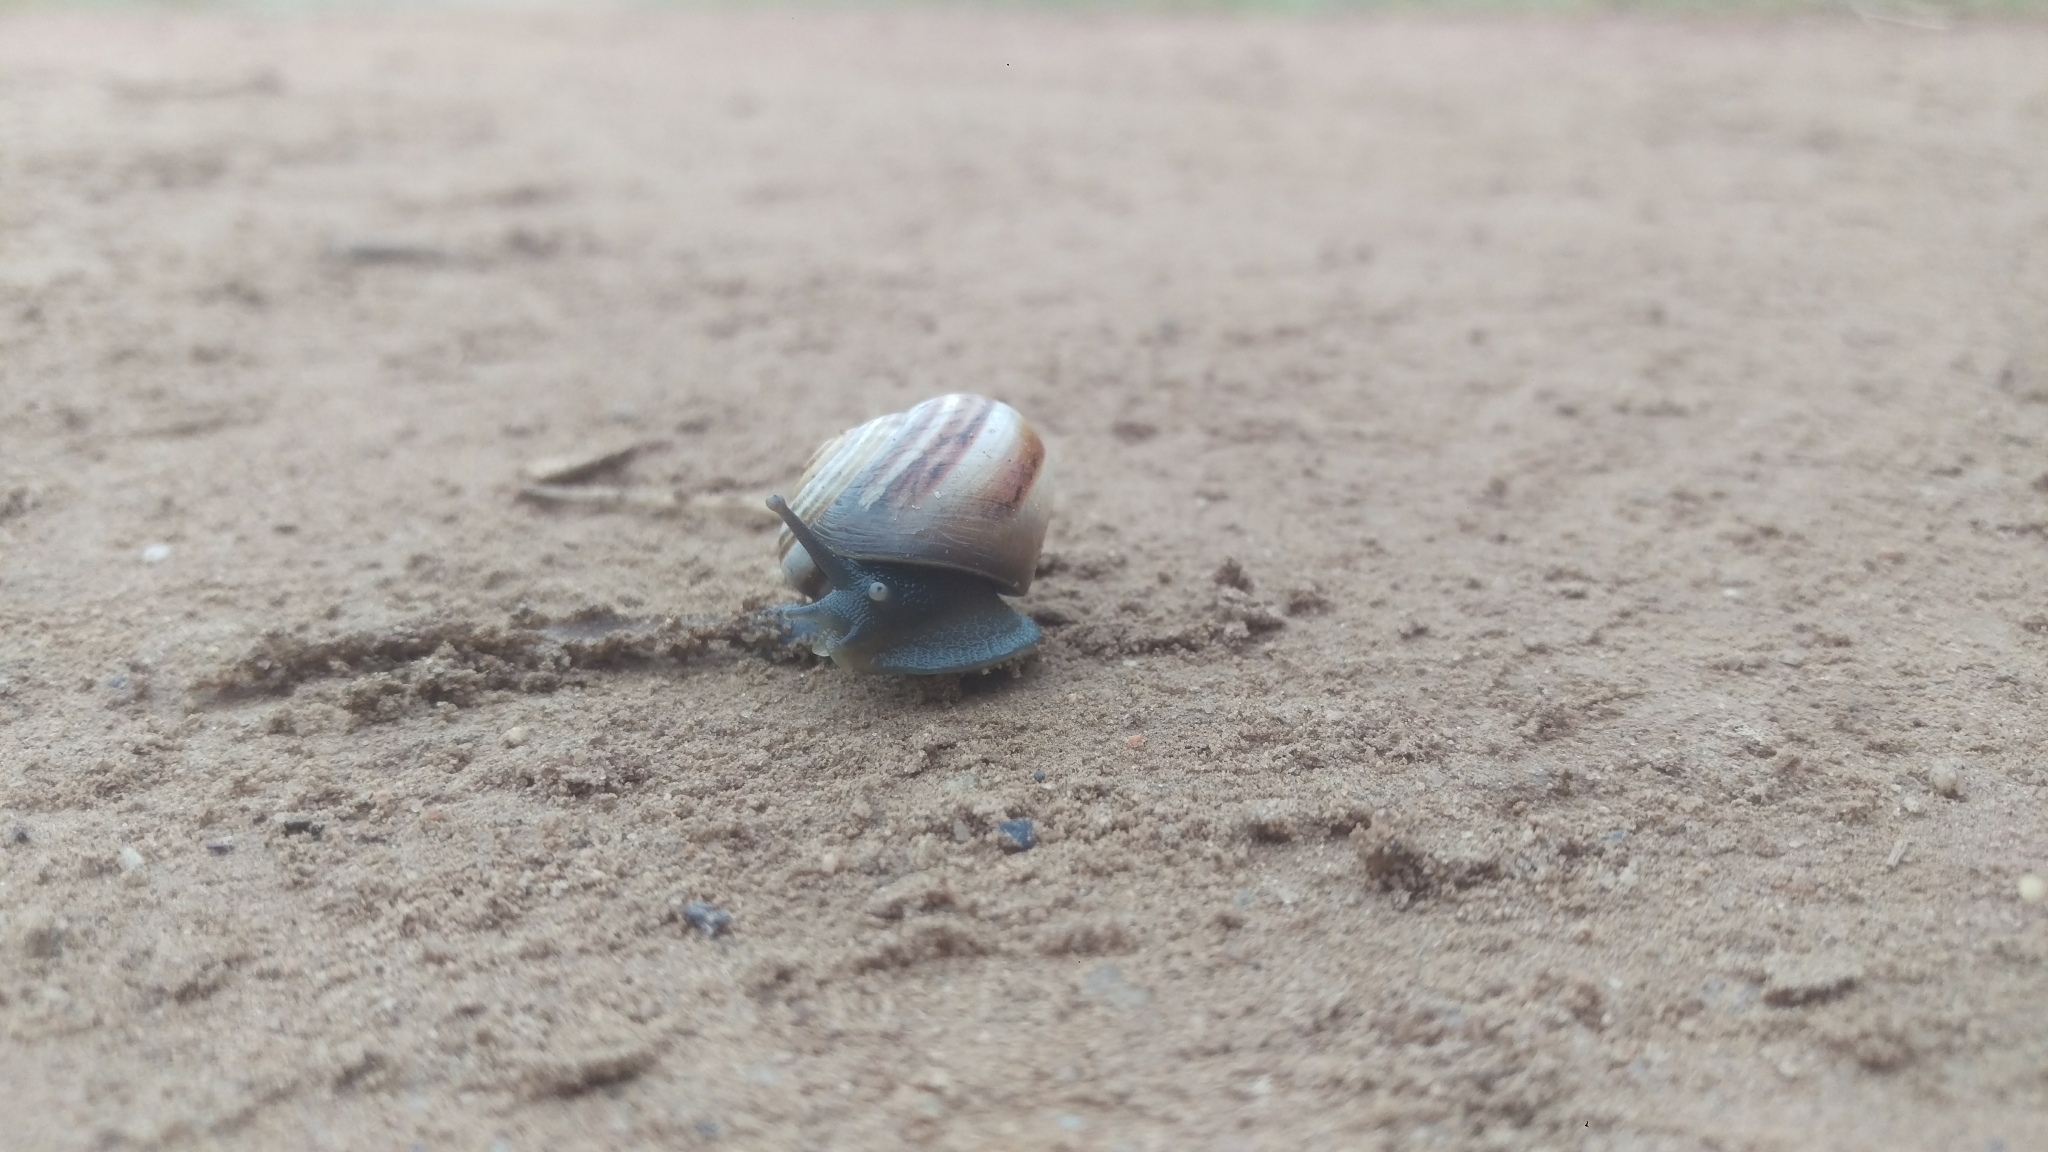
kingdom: Animalia
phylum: Mollusca
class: Gastropoda
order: Stylommatophora
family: Helicidae
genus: Otala
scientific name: Otala lactea
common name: Milk snail
